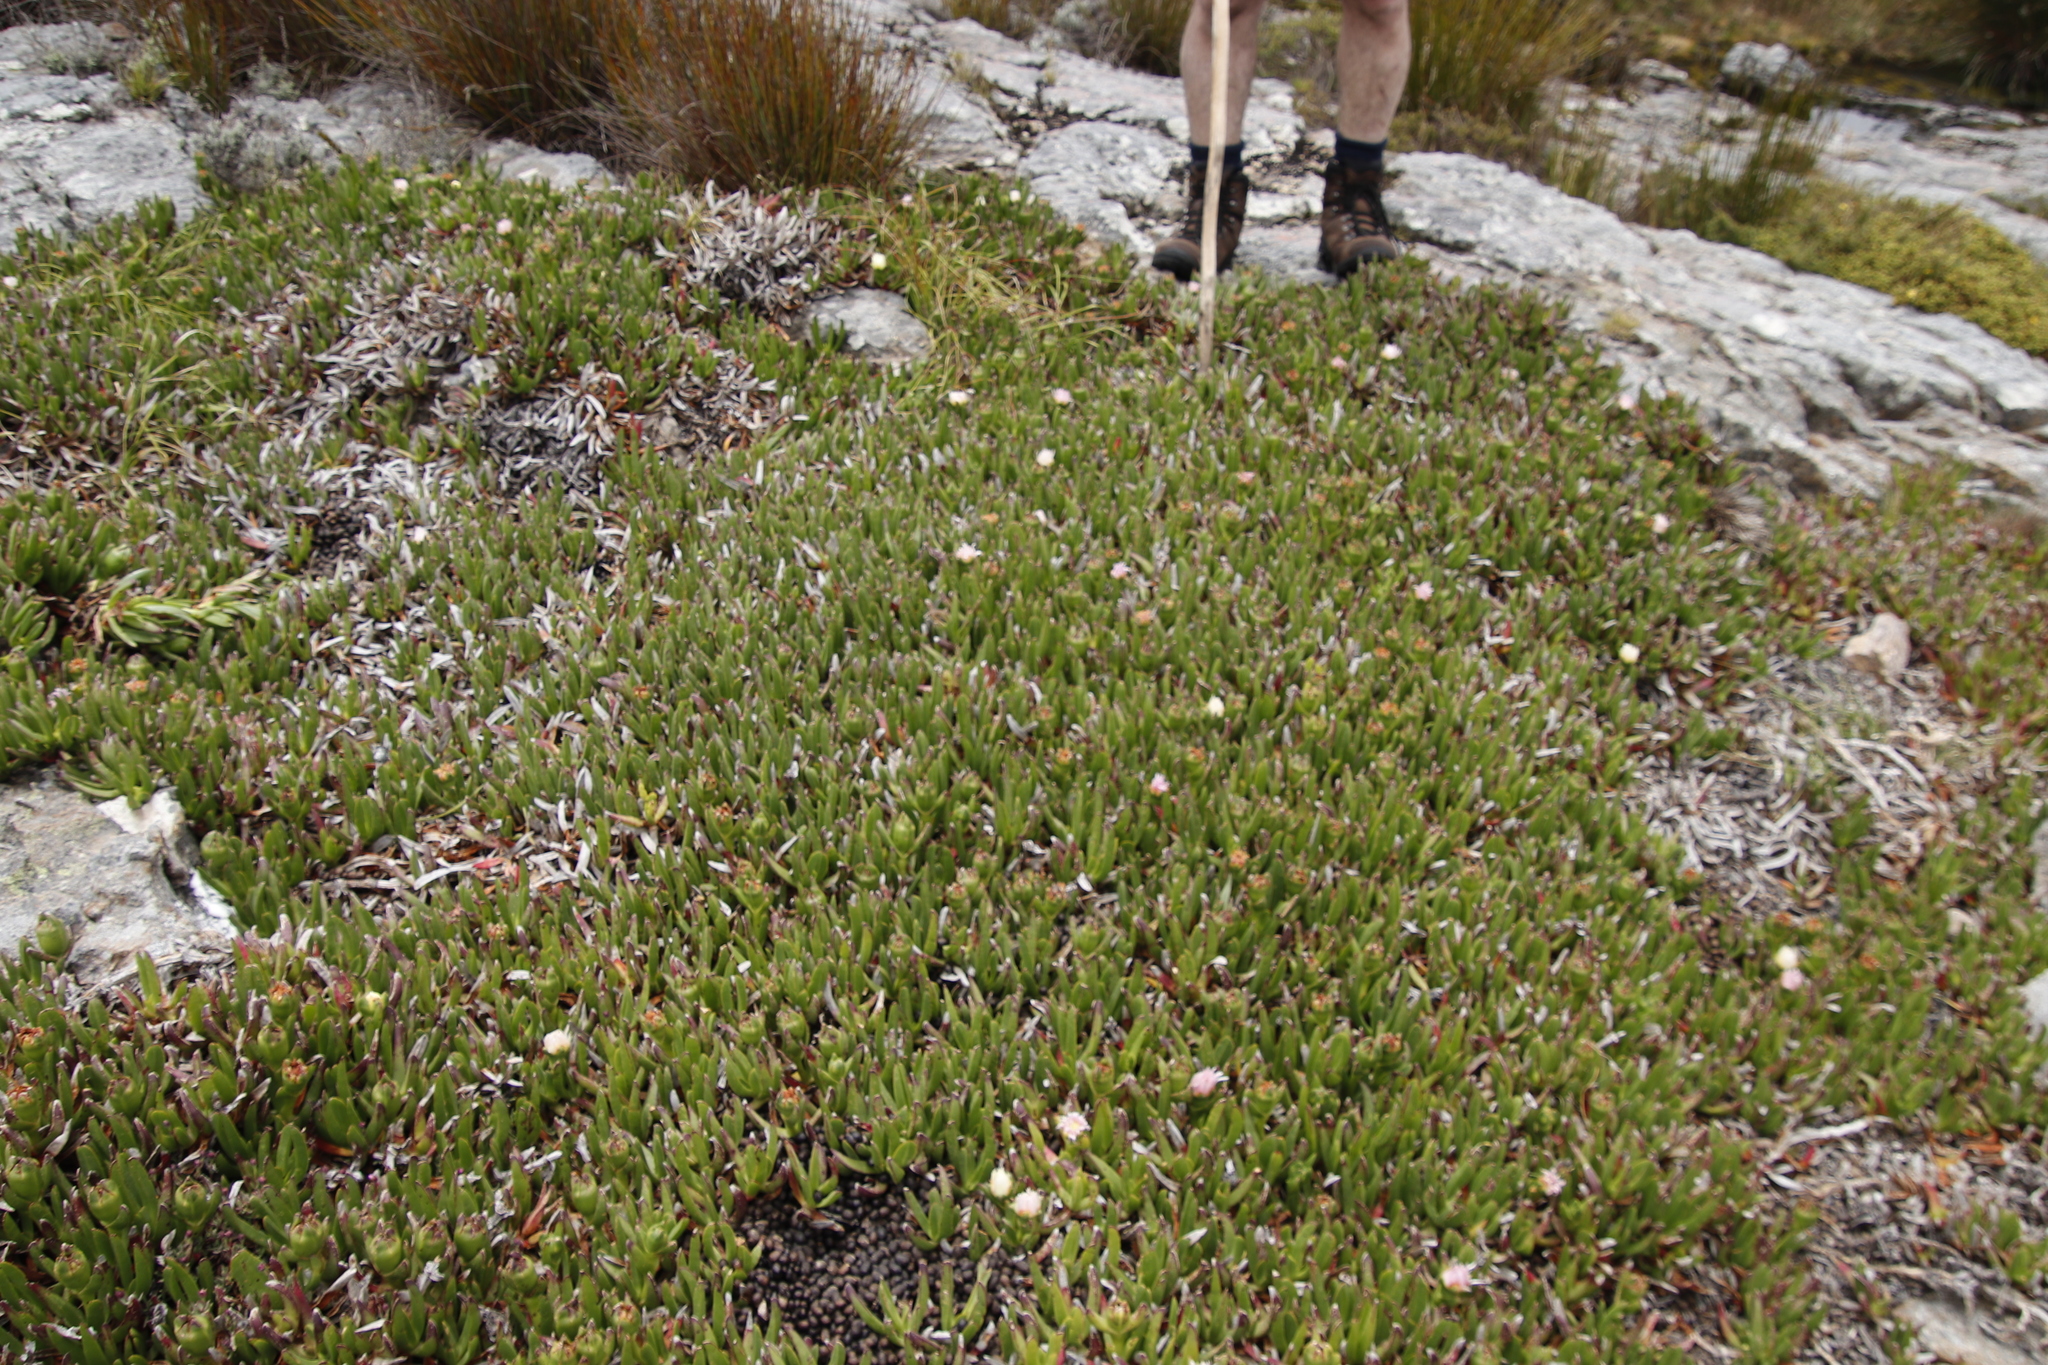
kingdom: Animalia
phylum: Chordata
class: Mammalia
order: Artiodactyla
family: Bovidae
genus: Oreotragus
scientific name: Oreotragus oreotragus
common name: Klipspringer
